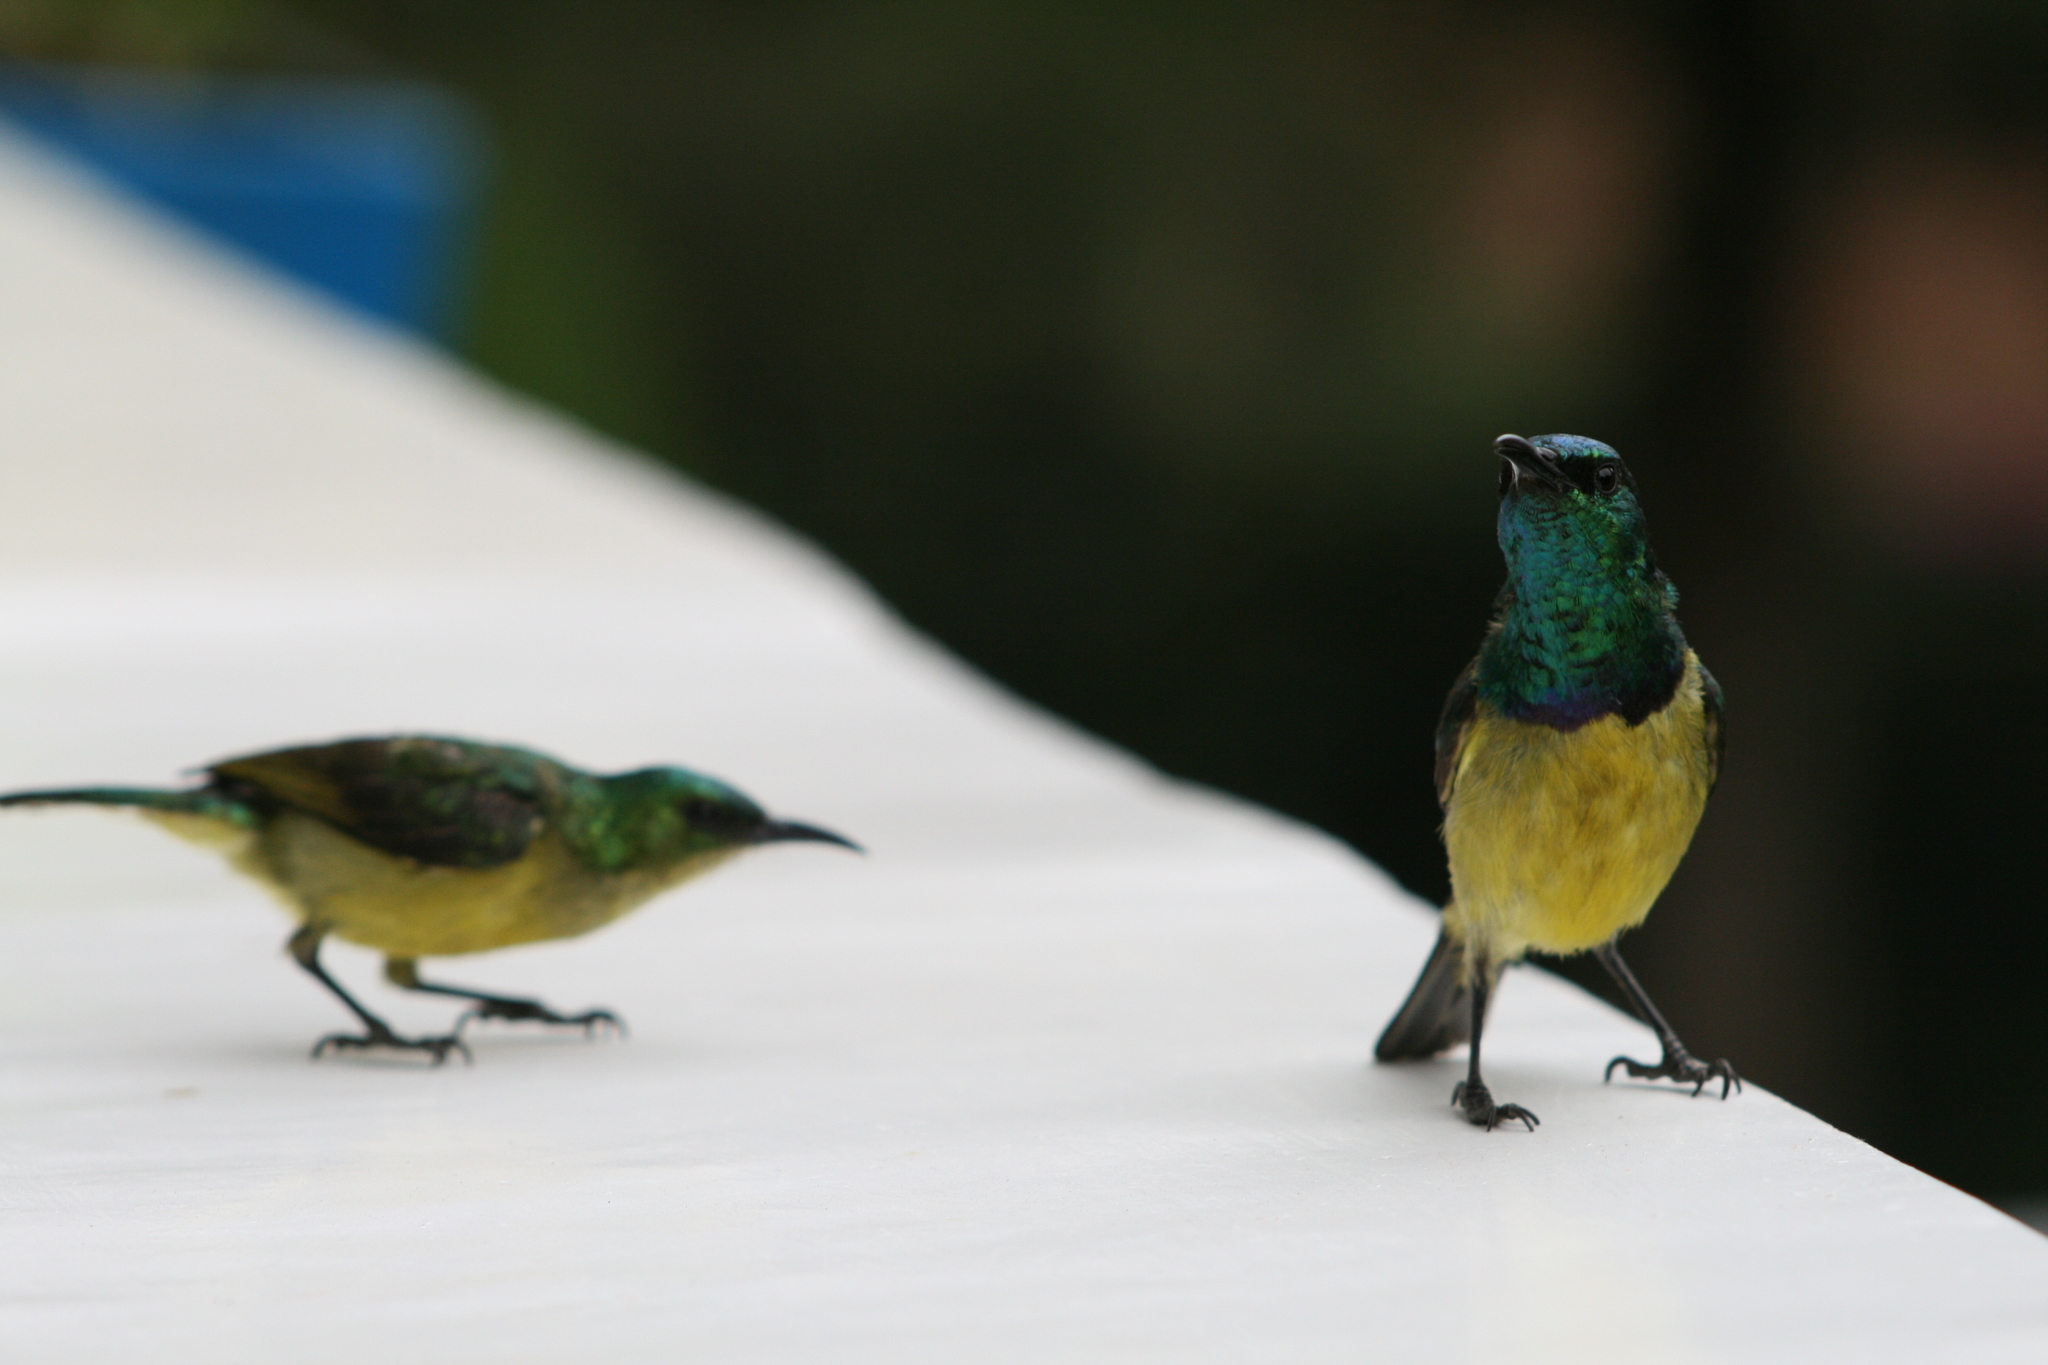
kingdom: Animalia
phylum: Chordata
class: Aves
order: Passeriformes
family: Nectariniidae
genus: Hedydipna
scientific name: Hedydipna collaris
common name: Collared sunbird
